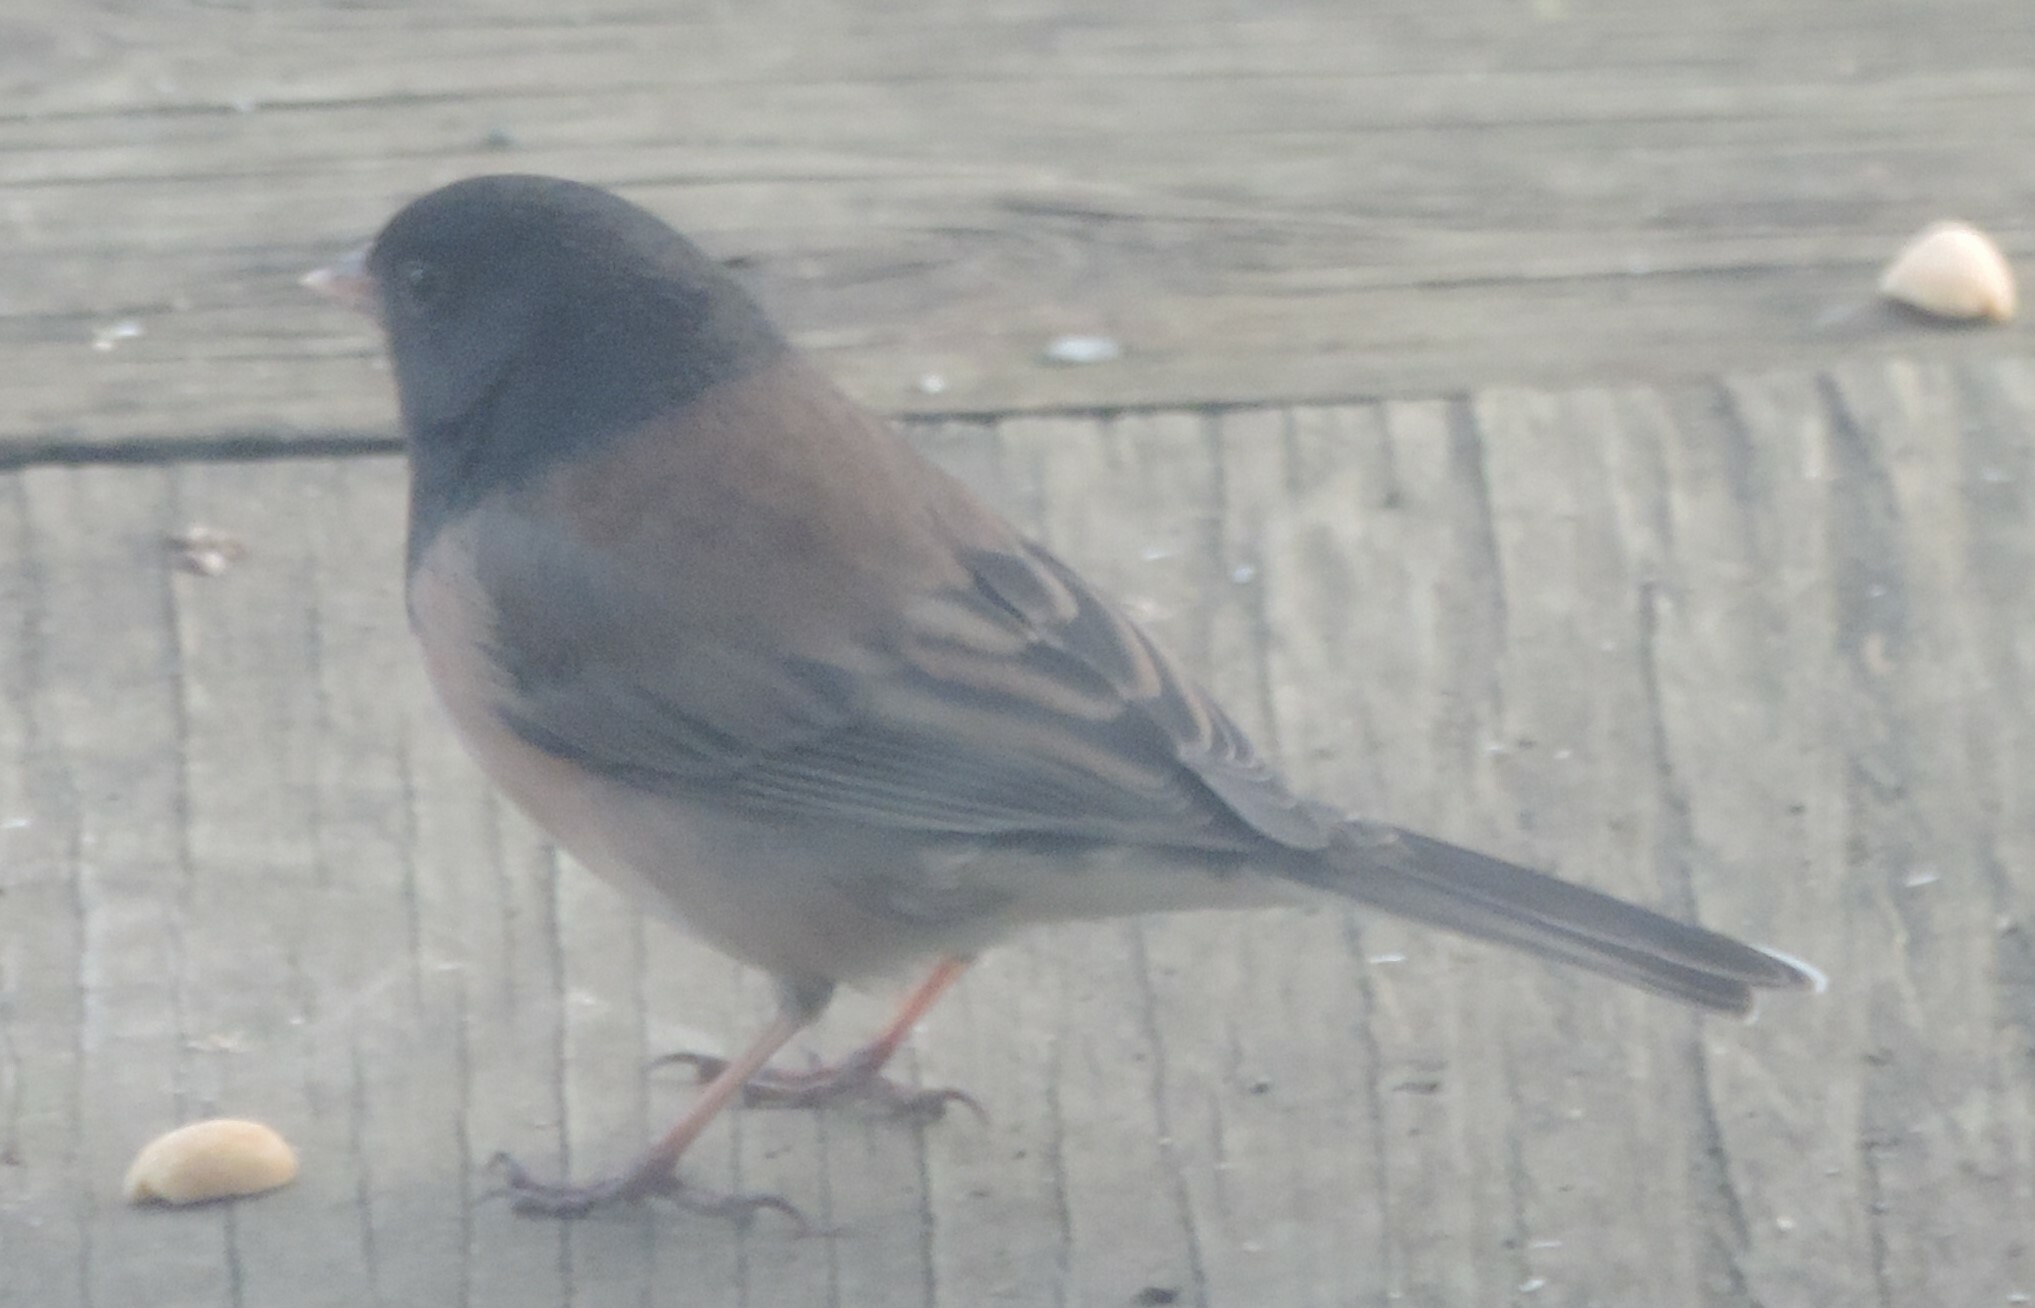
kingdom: Animalia
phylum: Chordata
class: Aves
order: Passeriformes
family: Passerellidae
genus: Junco
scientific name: Junco hyemalis
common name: Dark-eyed junco
